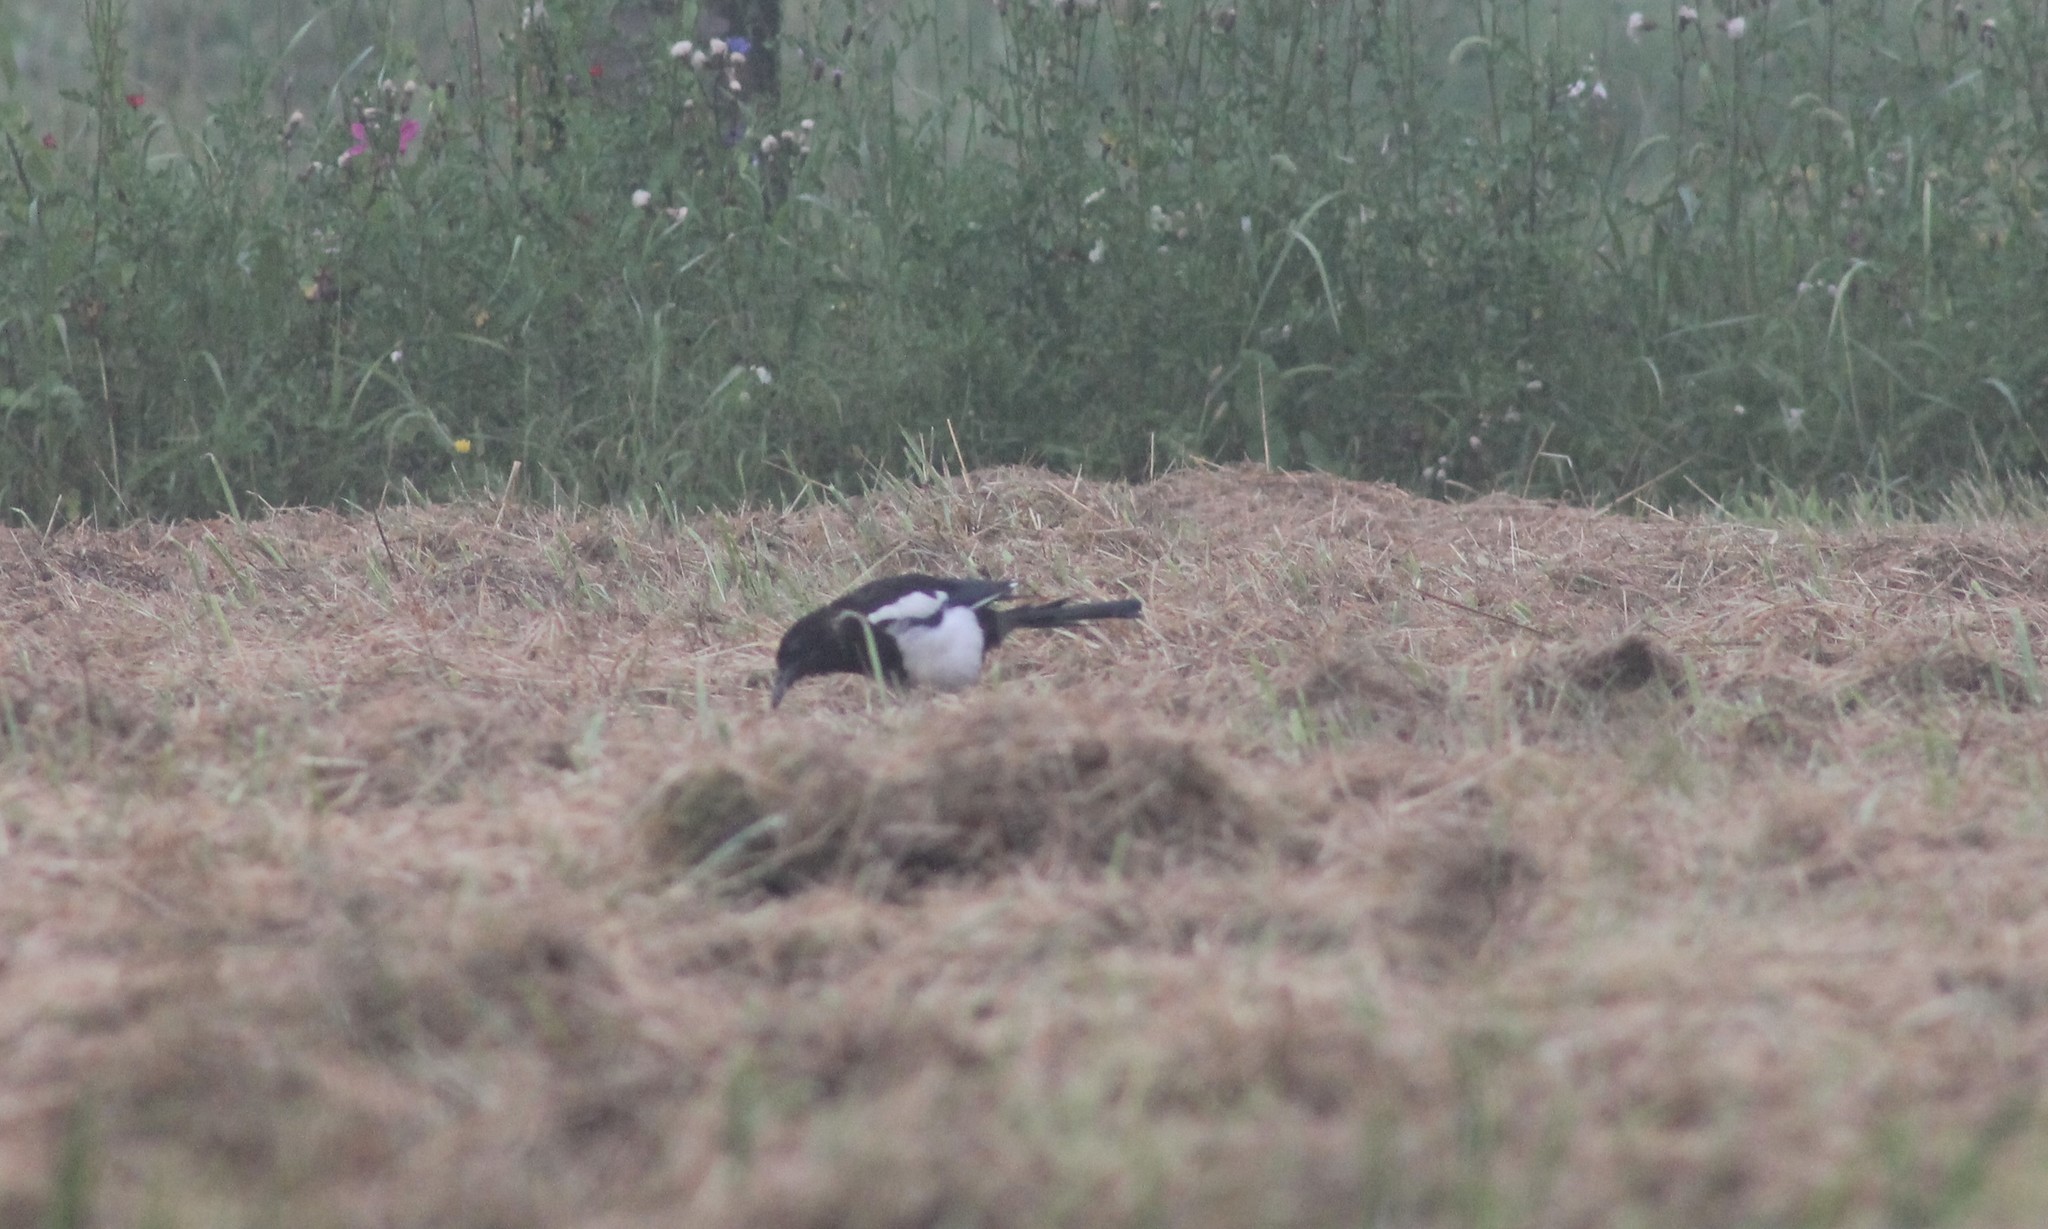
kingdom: Animalia
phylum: Chordata
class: Aves
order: Passeriformes
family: Corvidae
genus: Pica
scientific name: Pica pica
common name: Eurasian magpie
